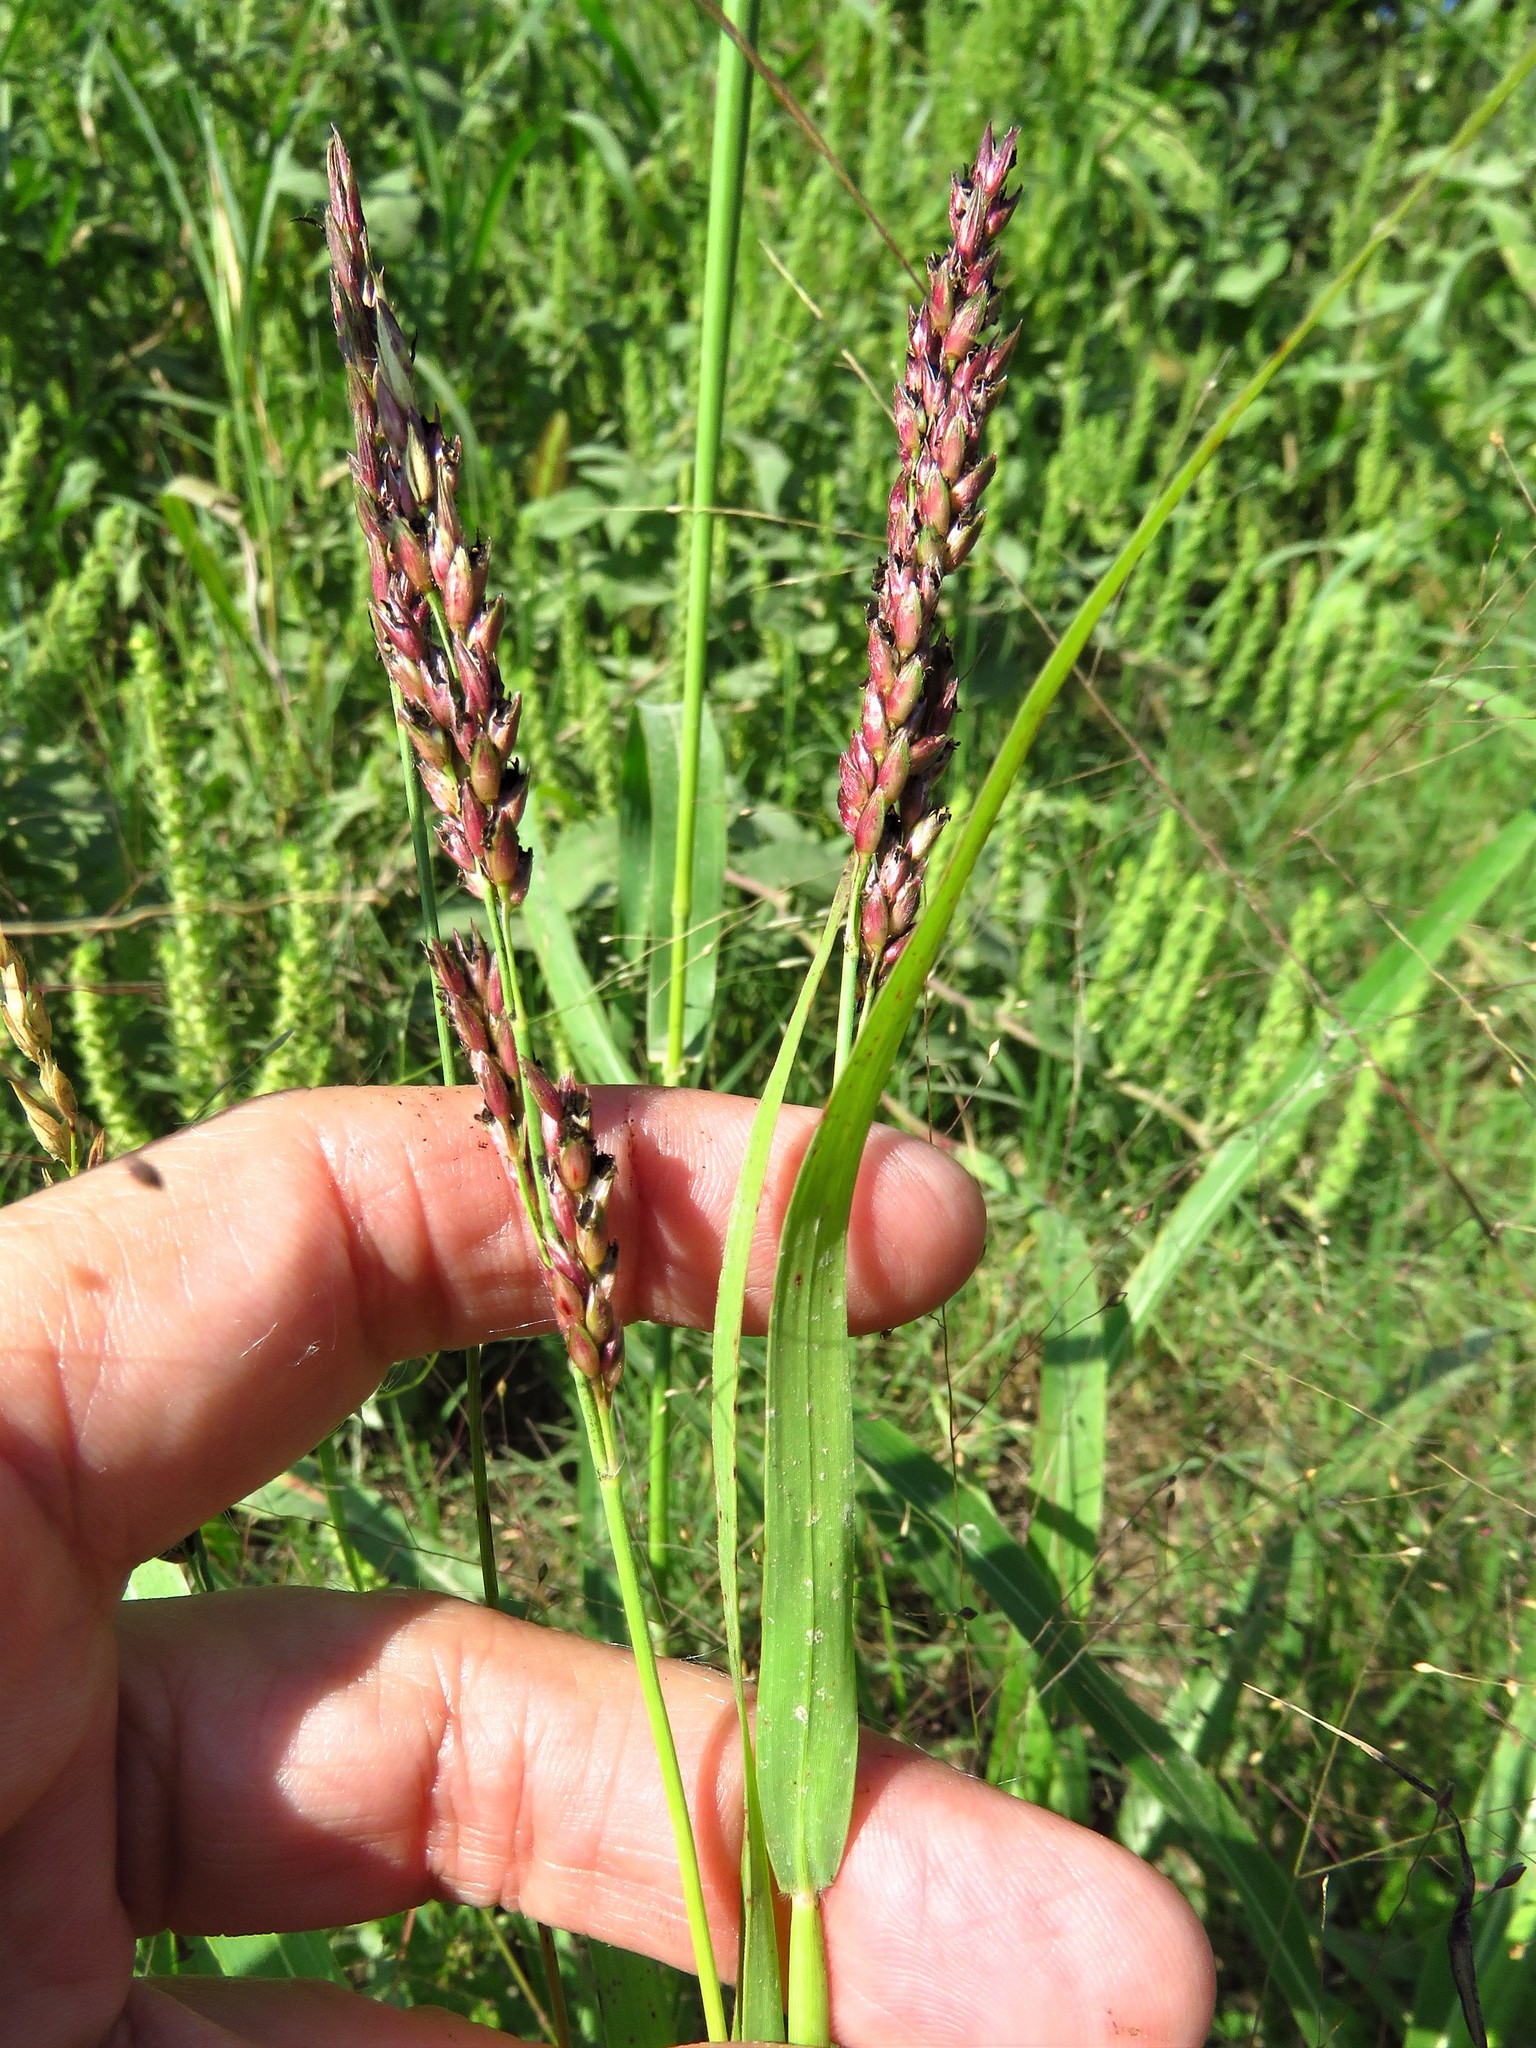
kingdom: Plantae
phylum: Tracheophyta
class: Liliopsida
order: Poales
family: Poaceae
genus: Sorghum
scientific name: Sorghum halepense
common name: Johnson-grass
